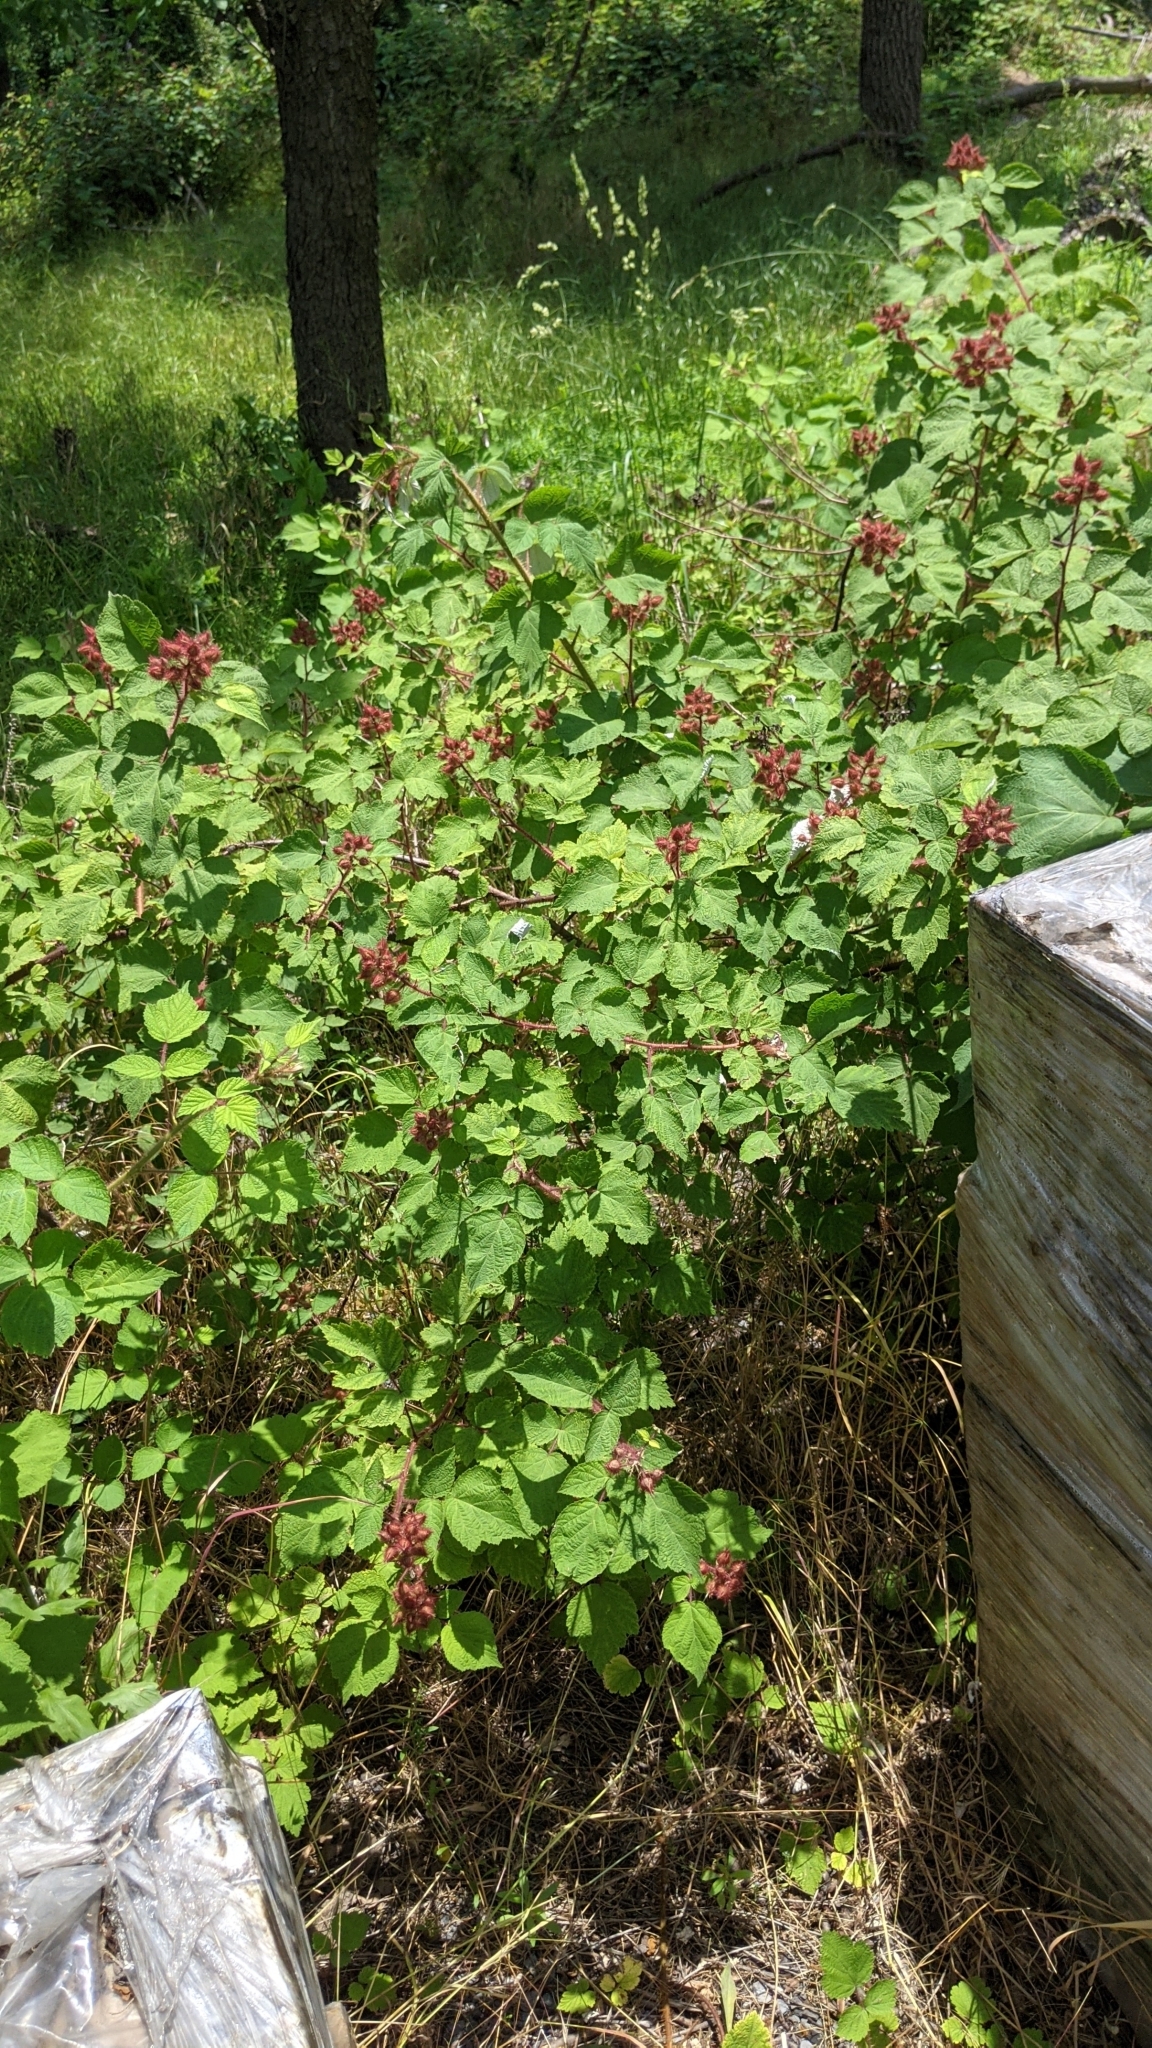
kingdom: Plantae
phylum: Tracheophyta
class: Magnoliopsida
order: Rosales
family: Rosaceae
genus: Rubus
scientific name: Rubus phoenicolasius
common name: Japanese wineberry
